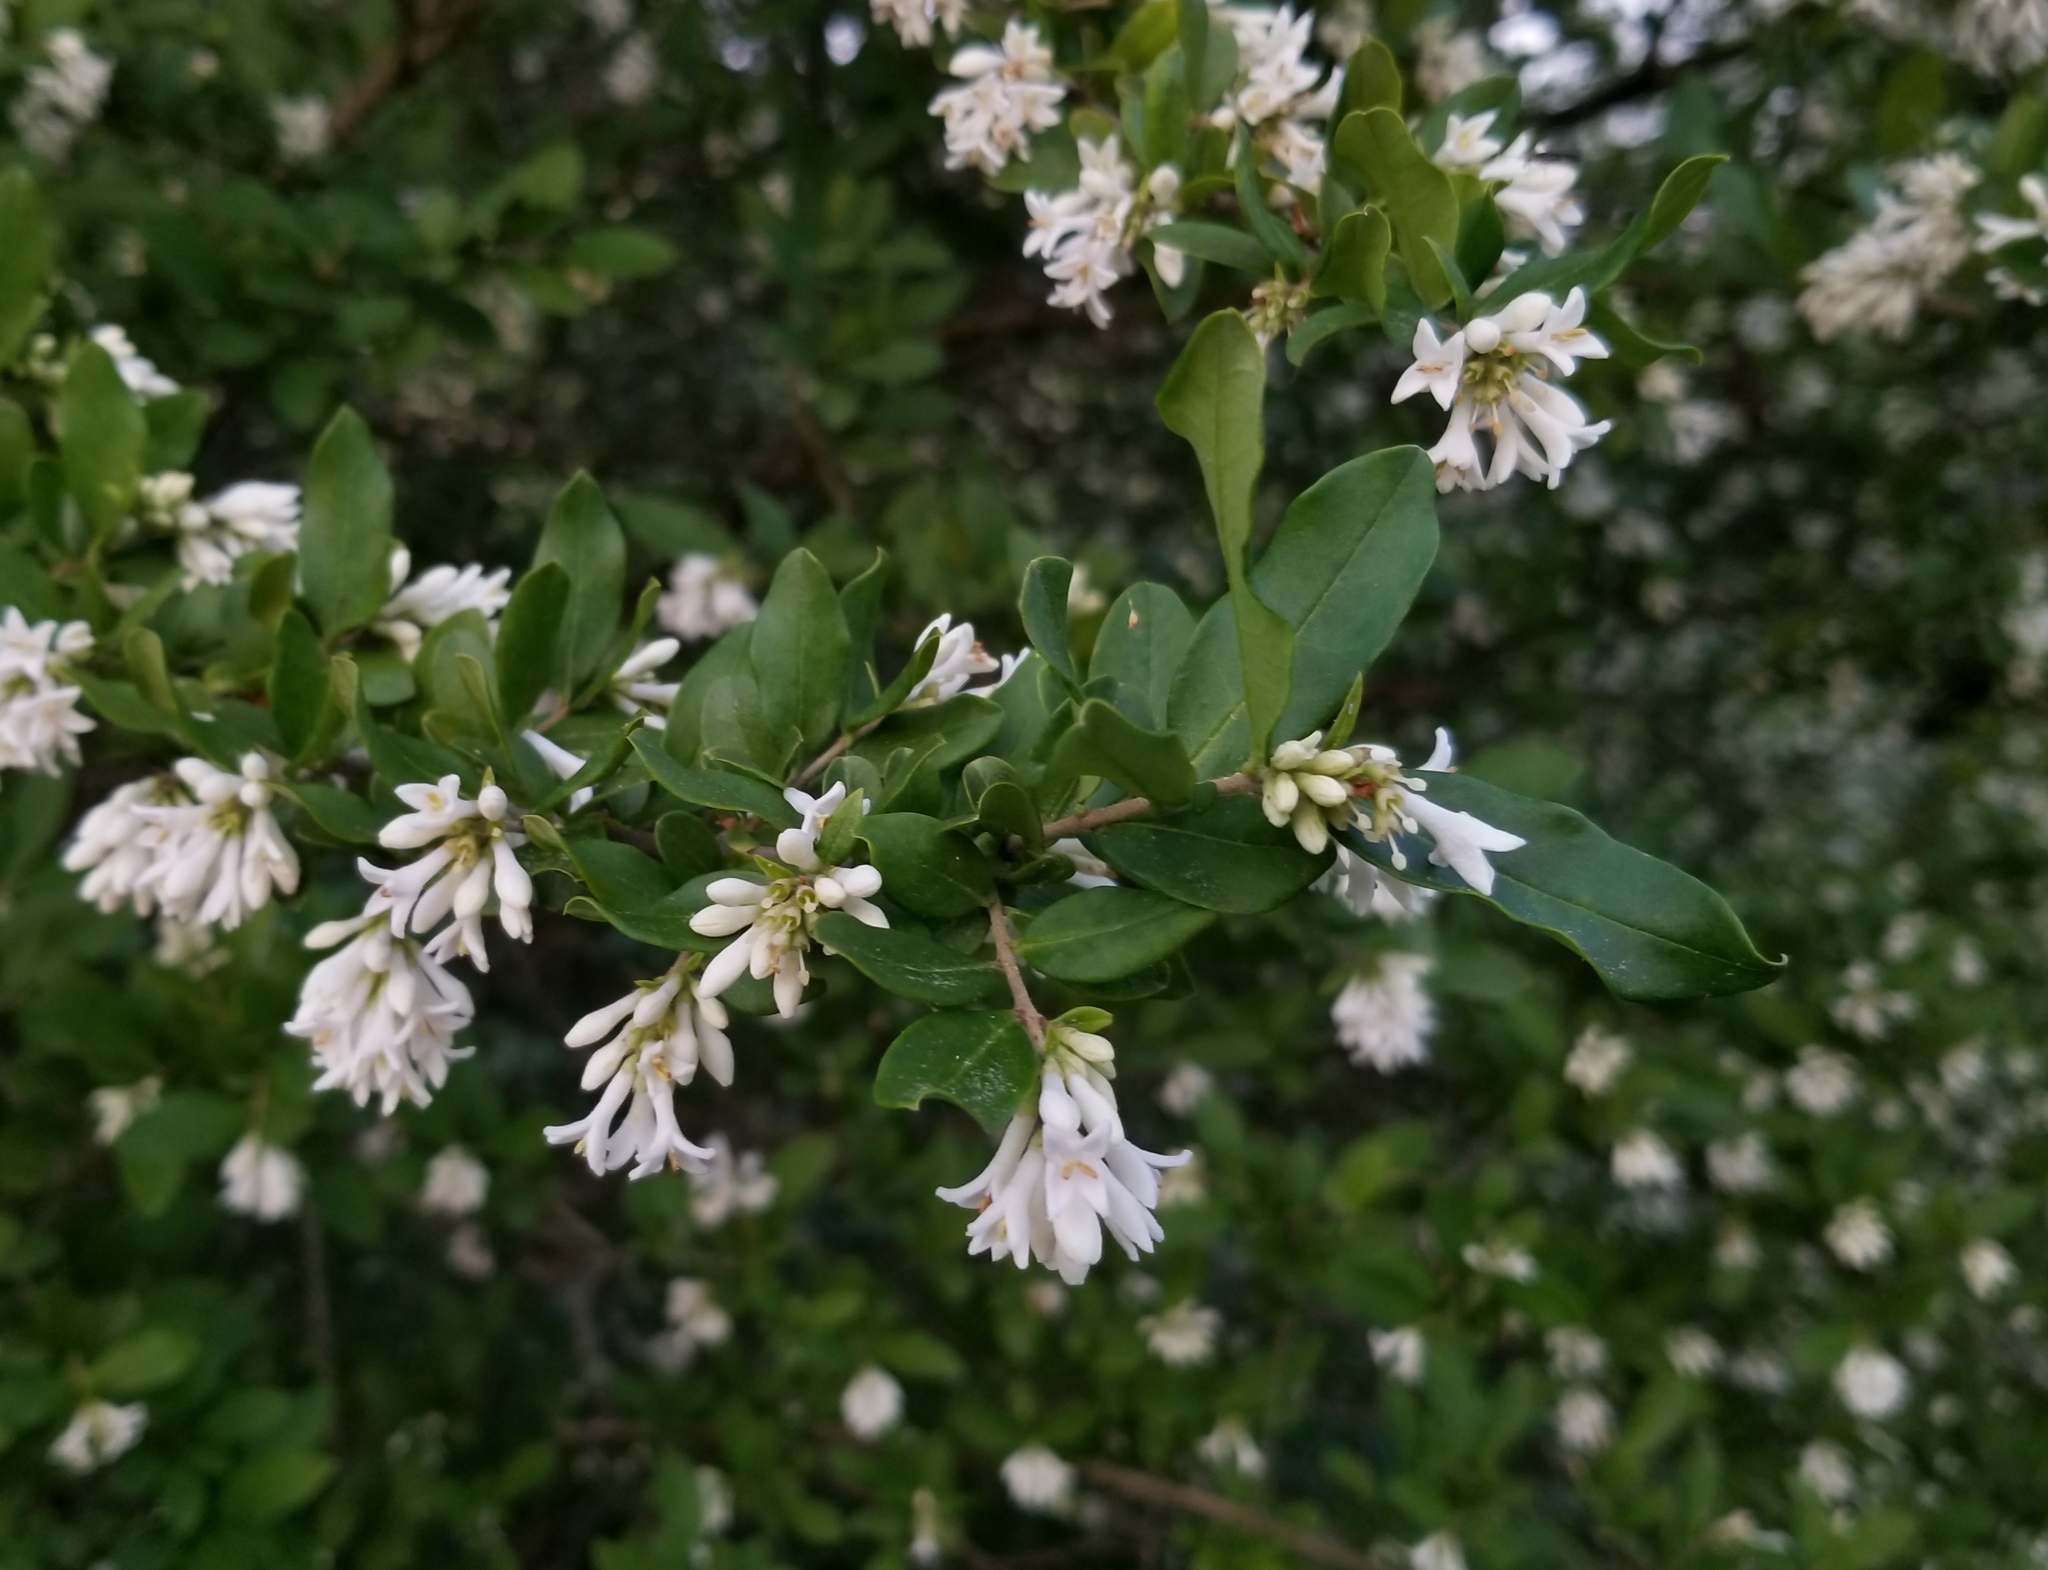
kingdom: Plantae
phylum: Tracheophyta
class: Magnoliopsida
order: Lamiales
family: Oleaceae
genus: Ligustrum
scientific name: Ligustrum obtusifolium
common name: Border privet
